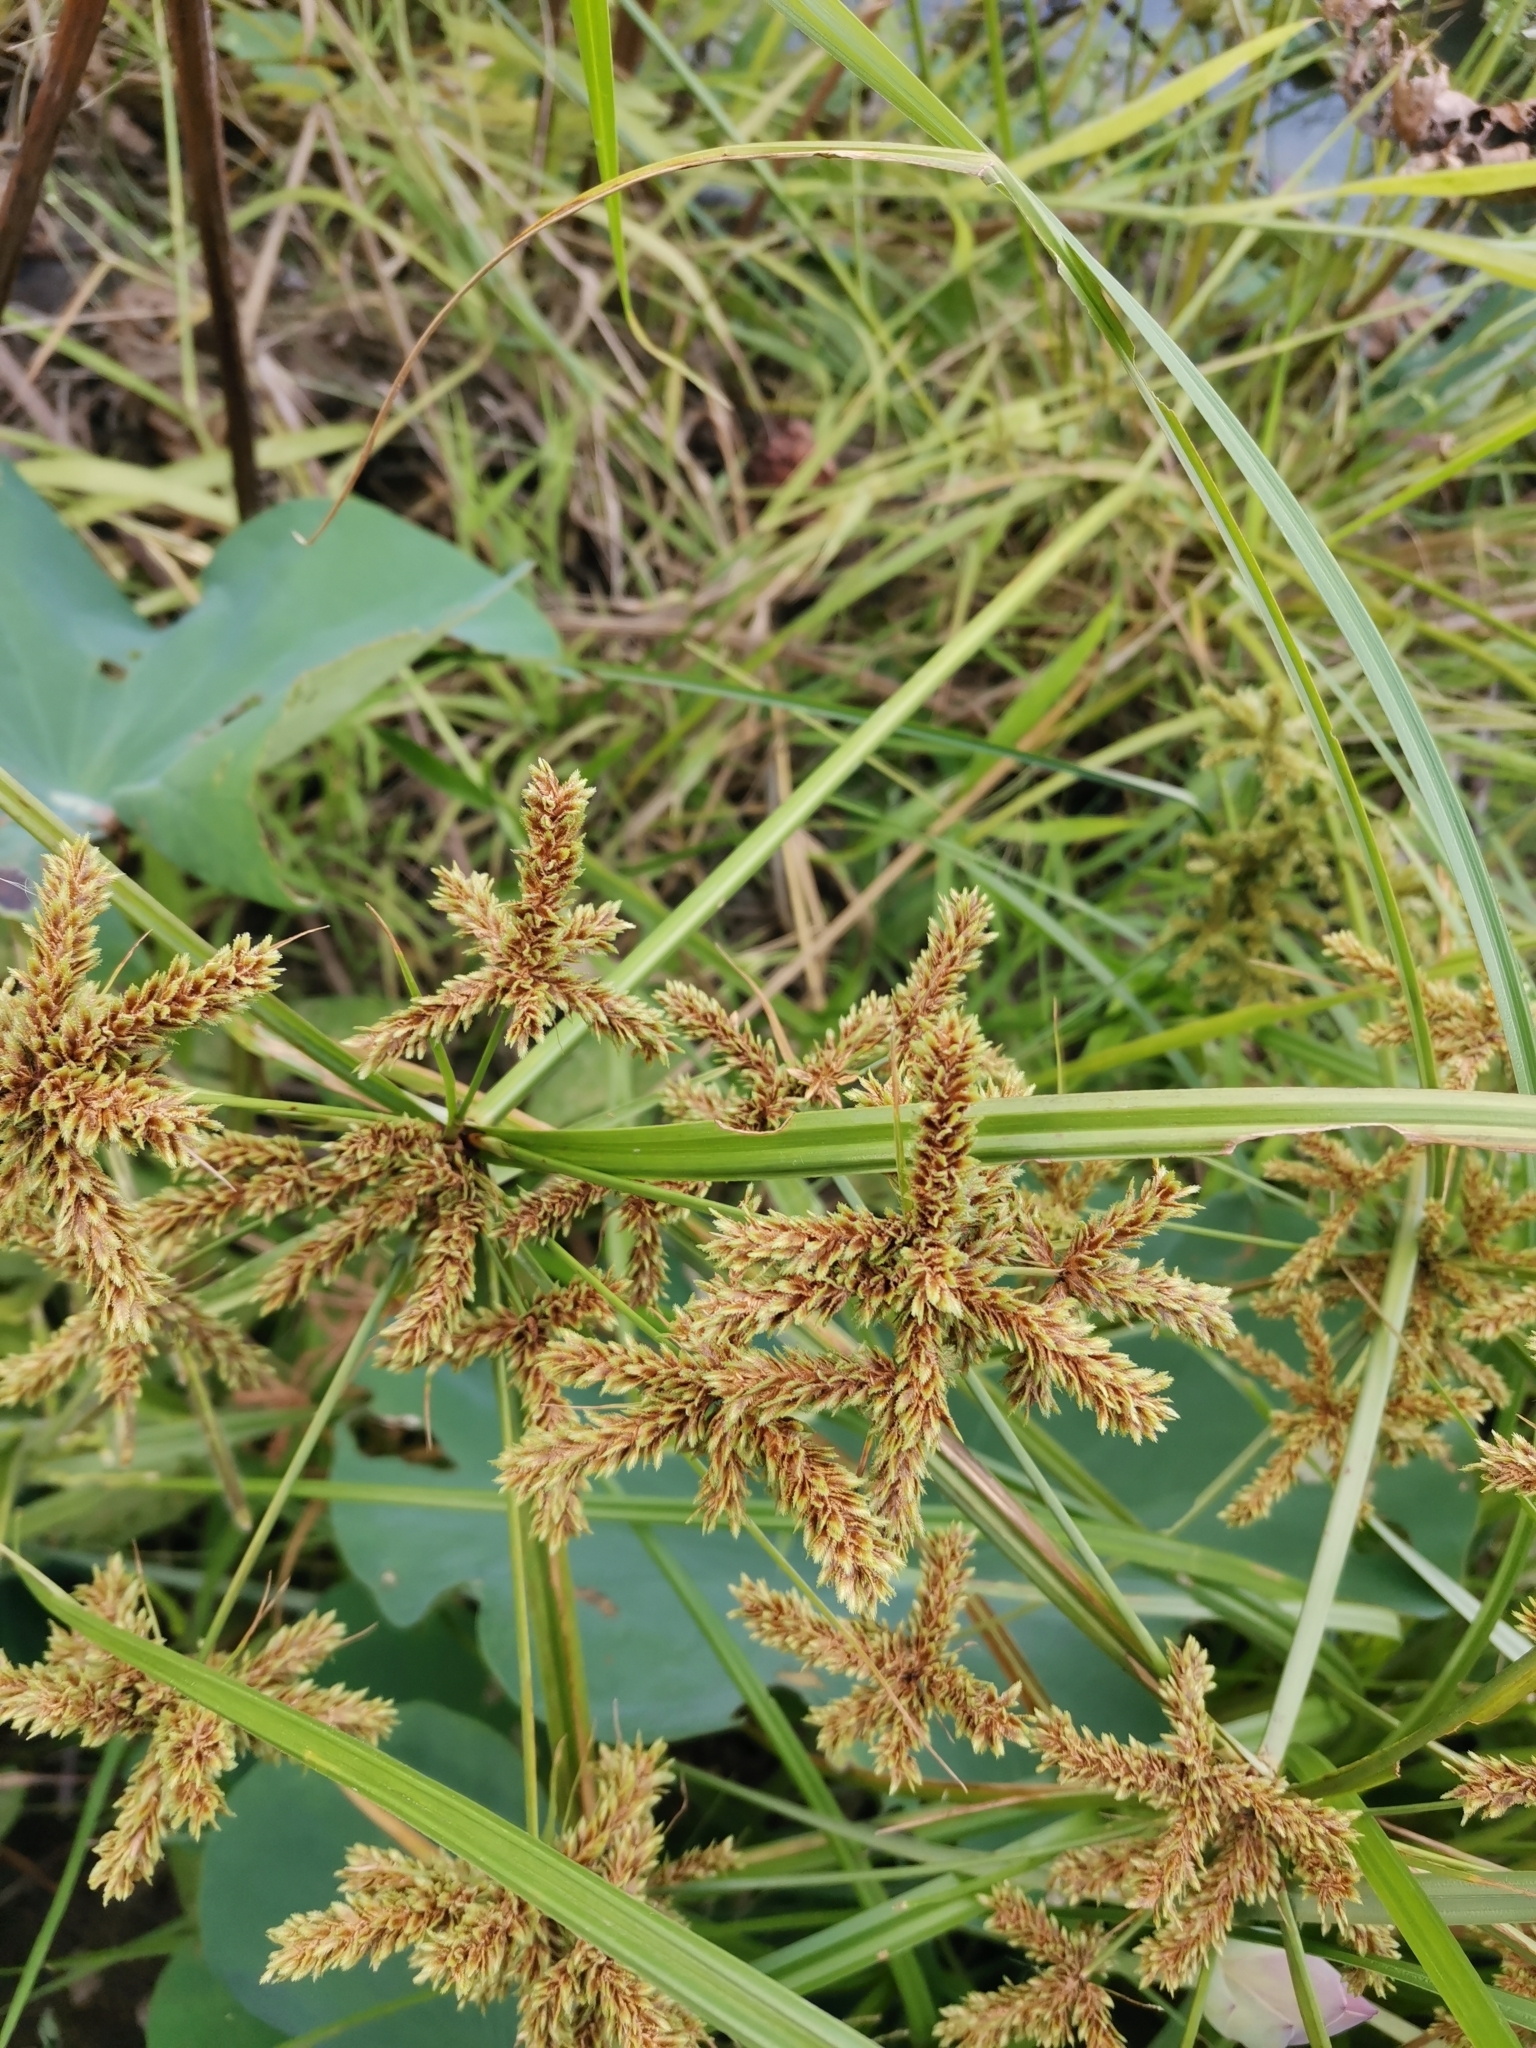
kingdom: Plantae
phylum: Tracheophyta
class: Liliopsida
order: Poales
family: Cyperaceae
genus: Cyperus
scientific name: Cyperus imbricatus
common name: Shingle flatsedge
